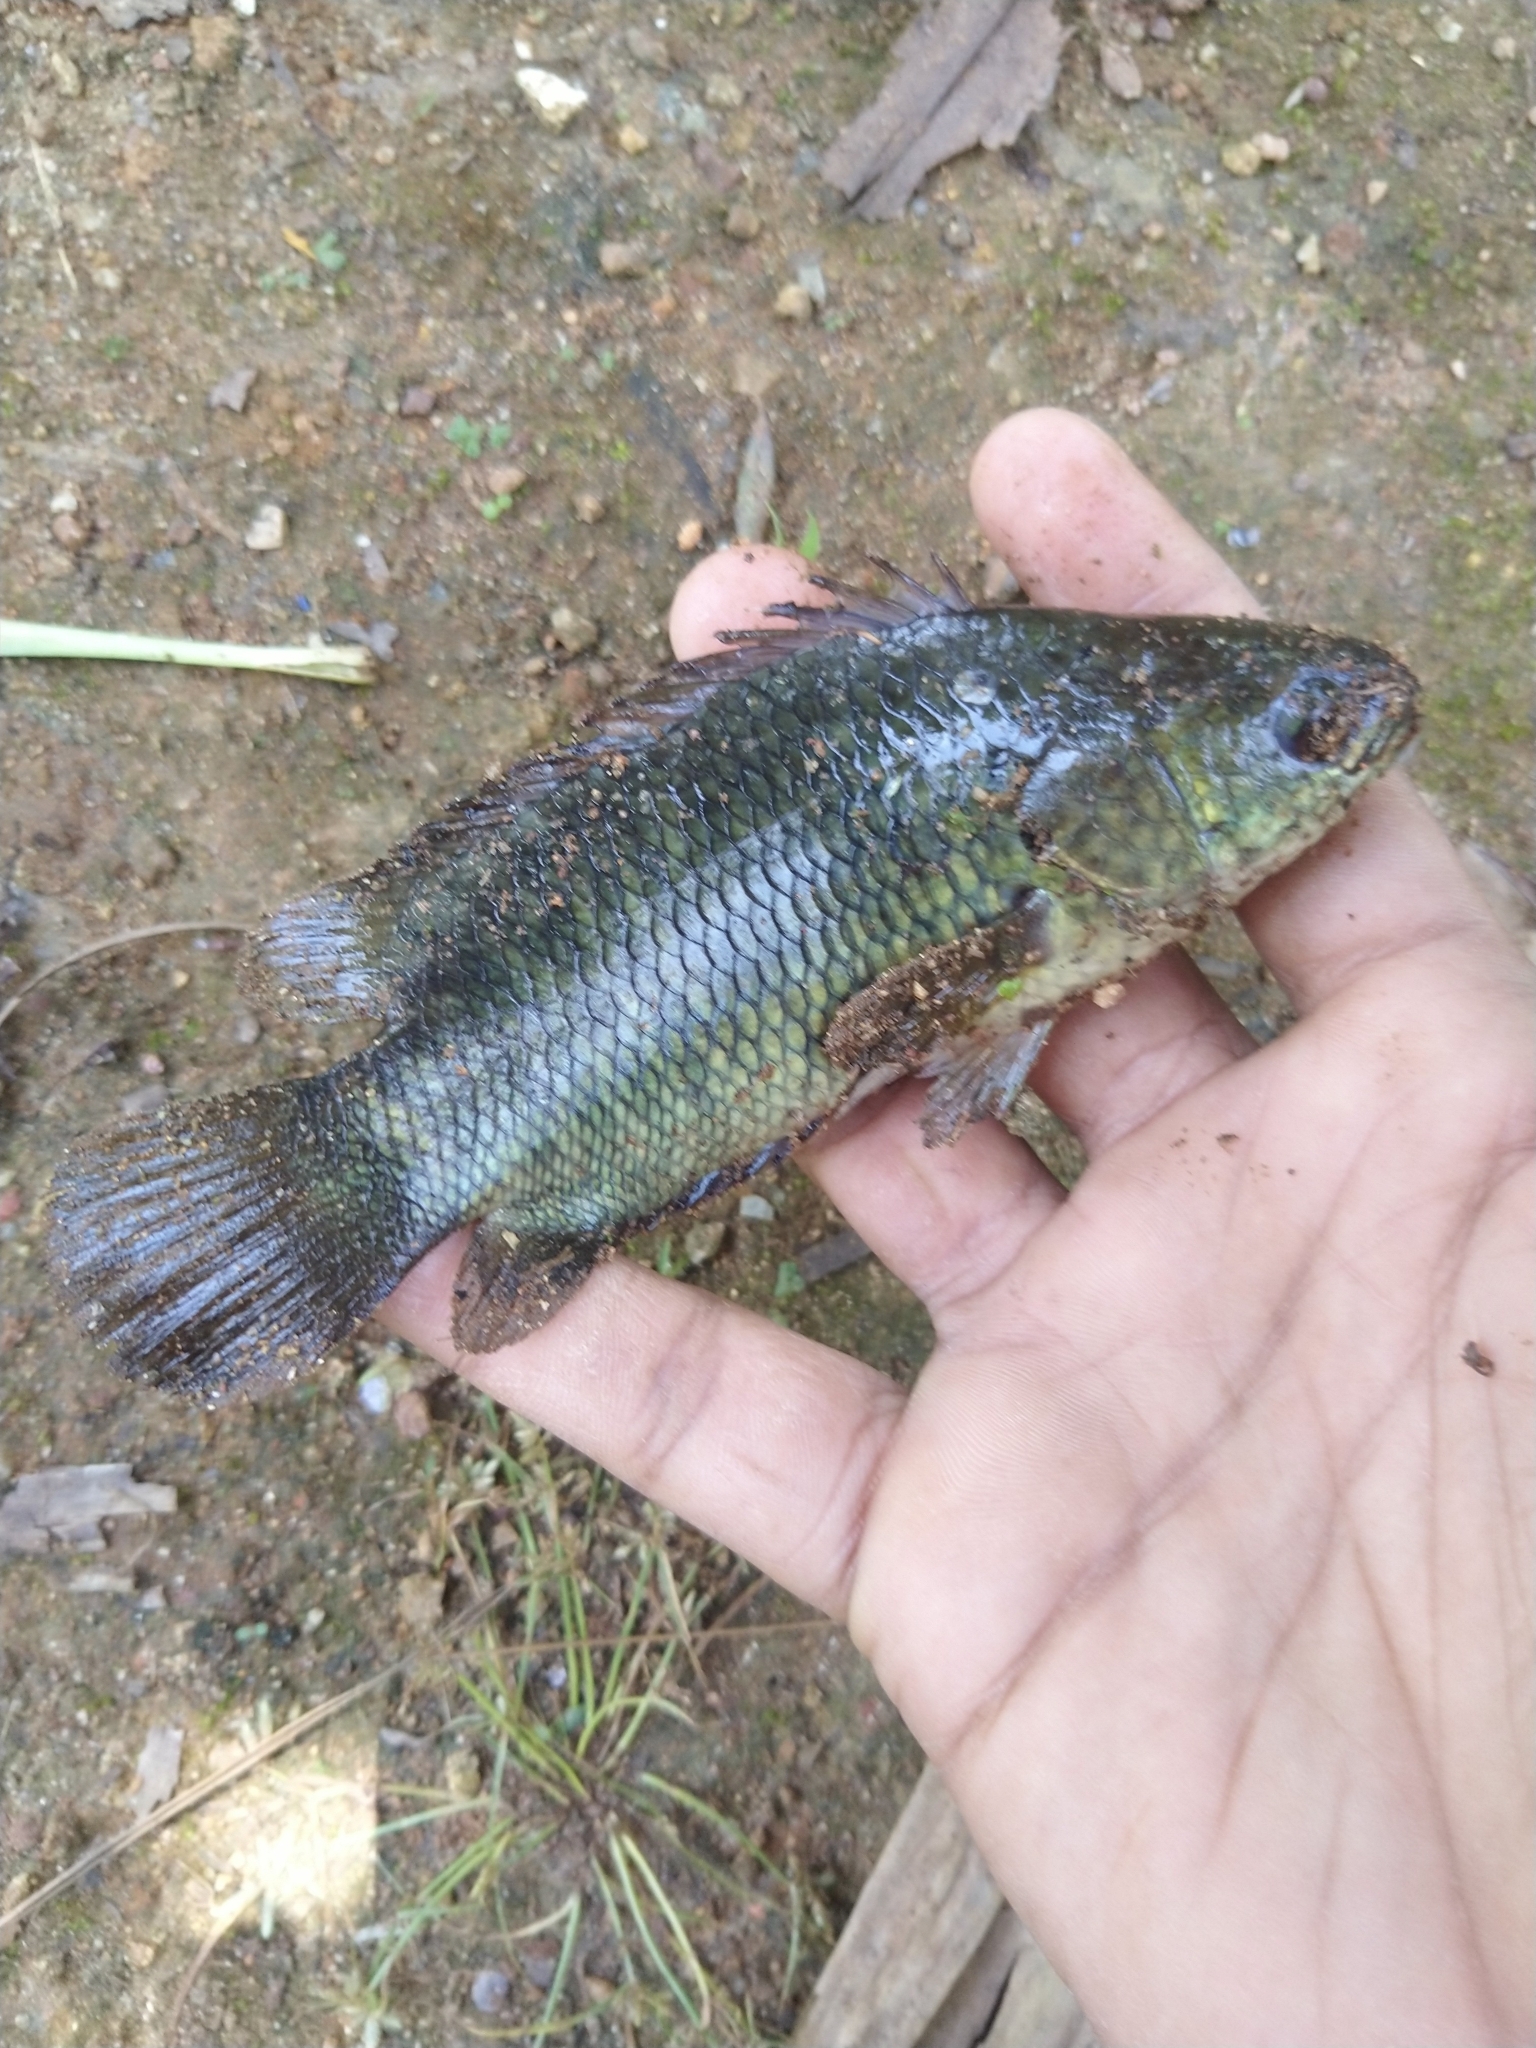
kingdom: Animalia
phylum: Chordata
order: Perciformes
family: Anabantidae
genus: Anabas
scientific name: Anabas testudineus
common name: Climbing perch
